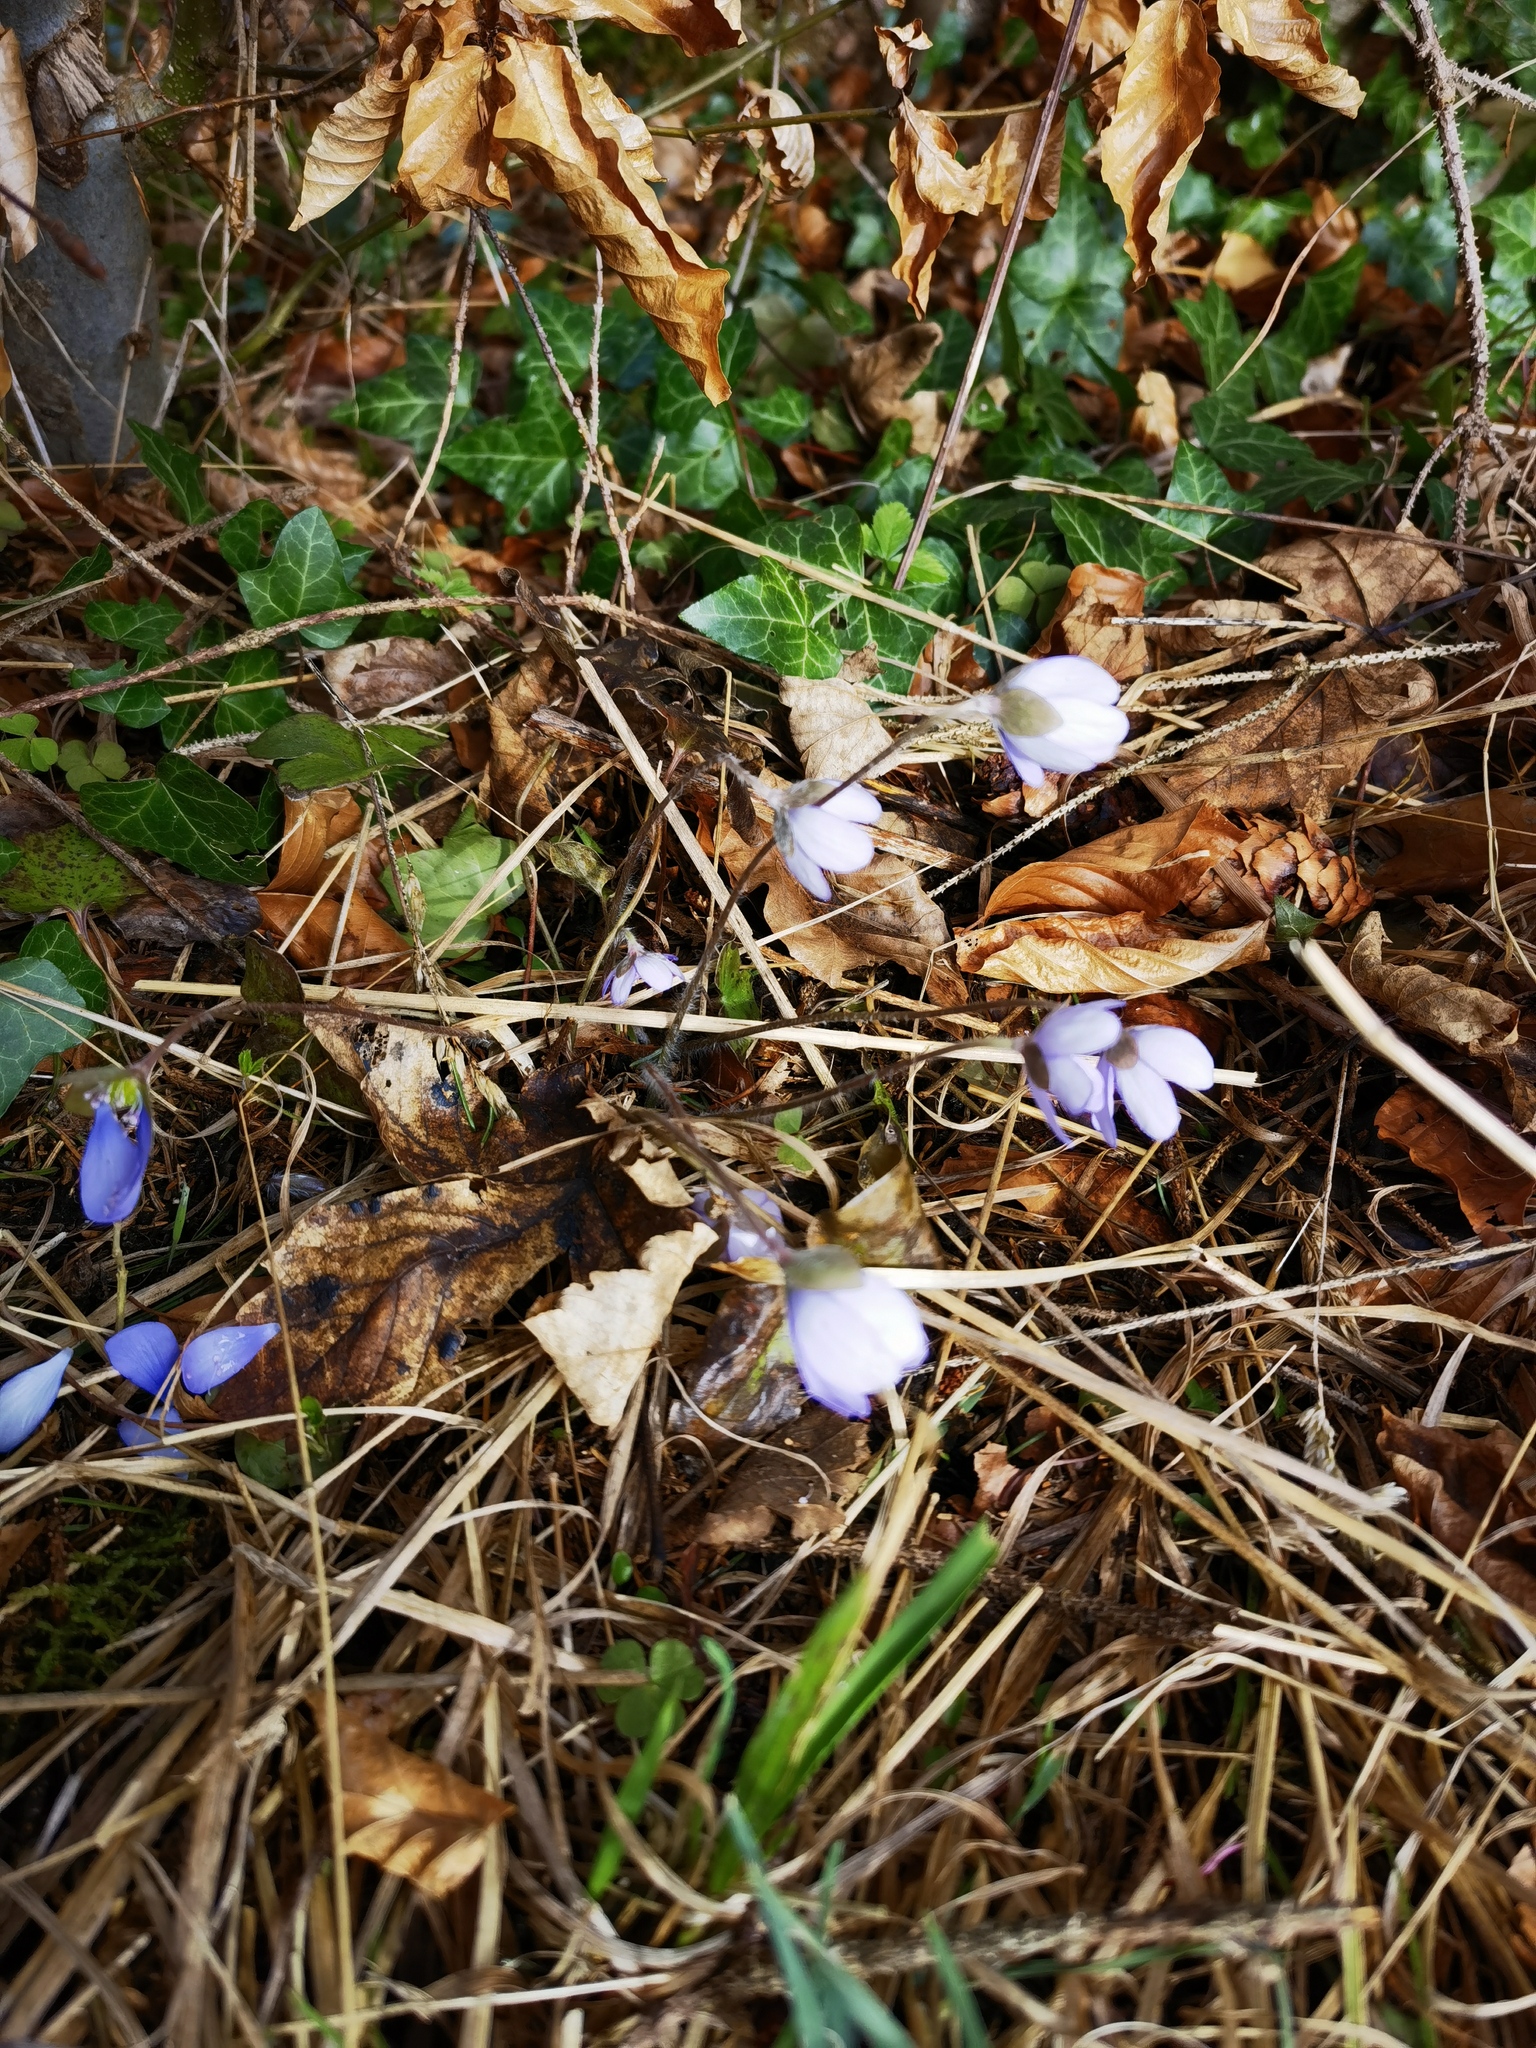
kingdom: Plantae
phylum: Tracheophyta
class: Magnoliopsida
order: Ranunculales
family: Ranunculaceae
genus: Hepatica
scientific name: Hepatica nobilis
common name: Liverleaf
